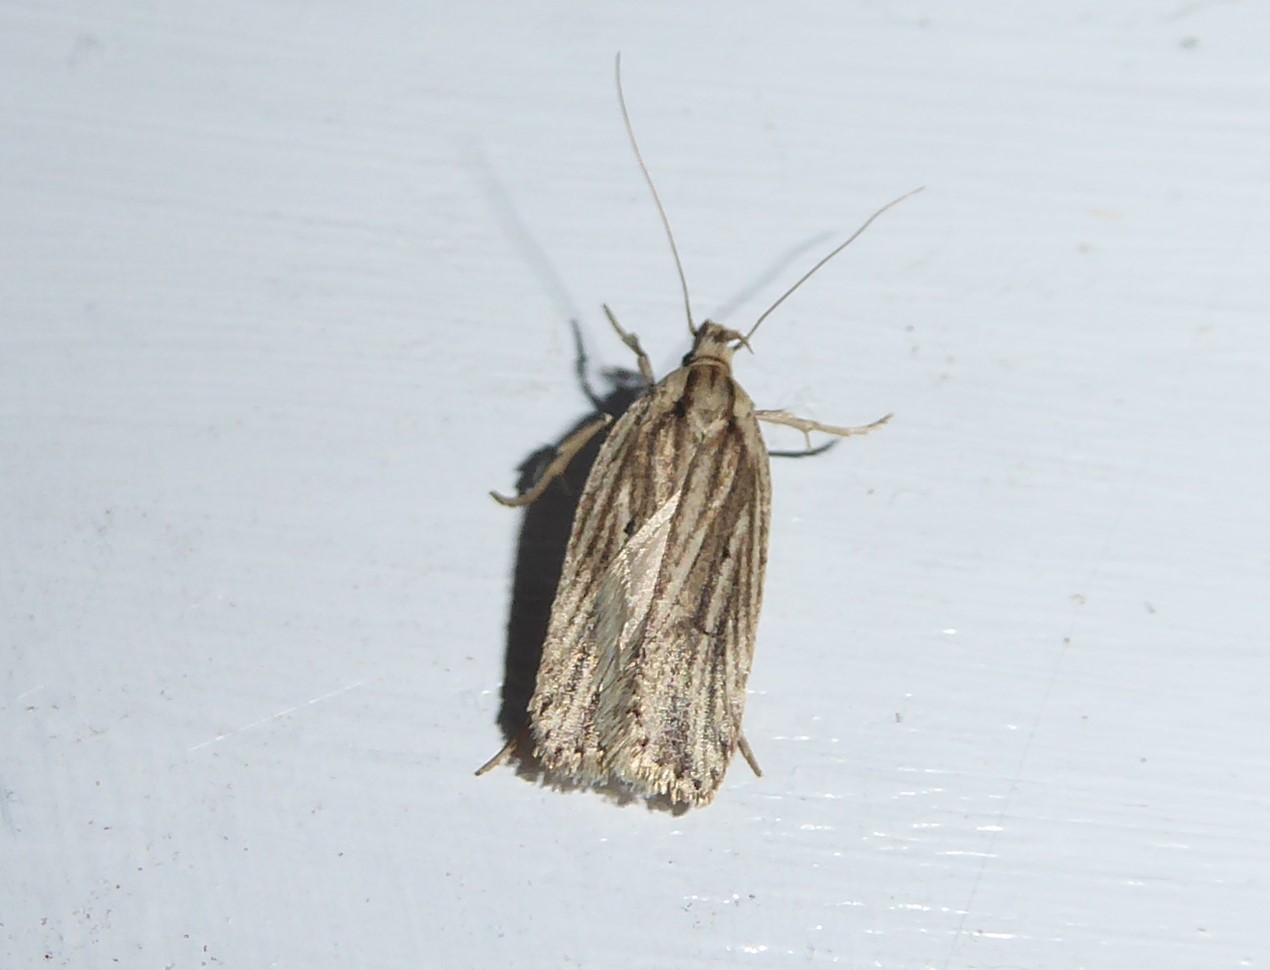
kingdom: Animalia
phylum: Arthropoda
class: Insecta
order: Lepidoptera
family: Depressariidae
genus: Agonopterix
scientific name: Agonopterix
